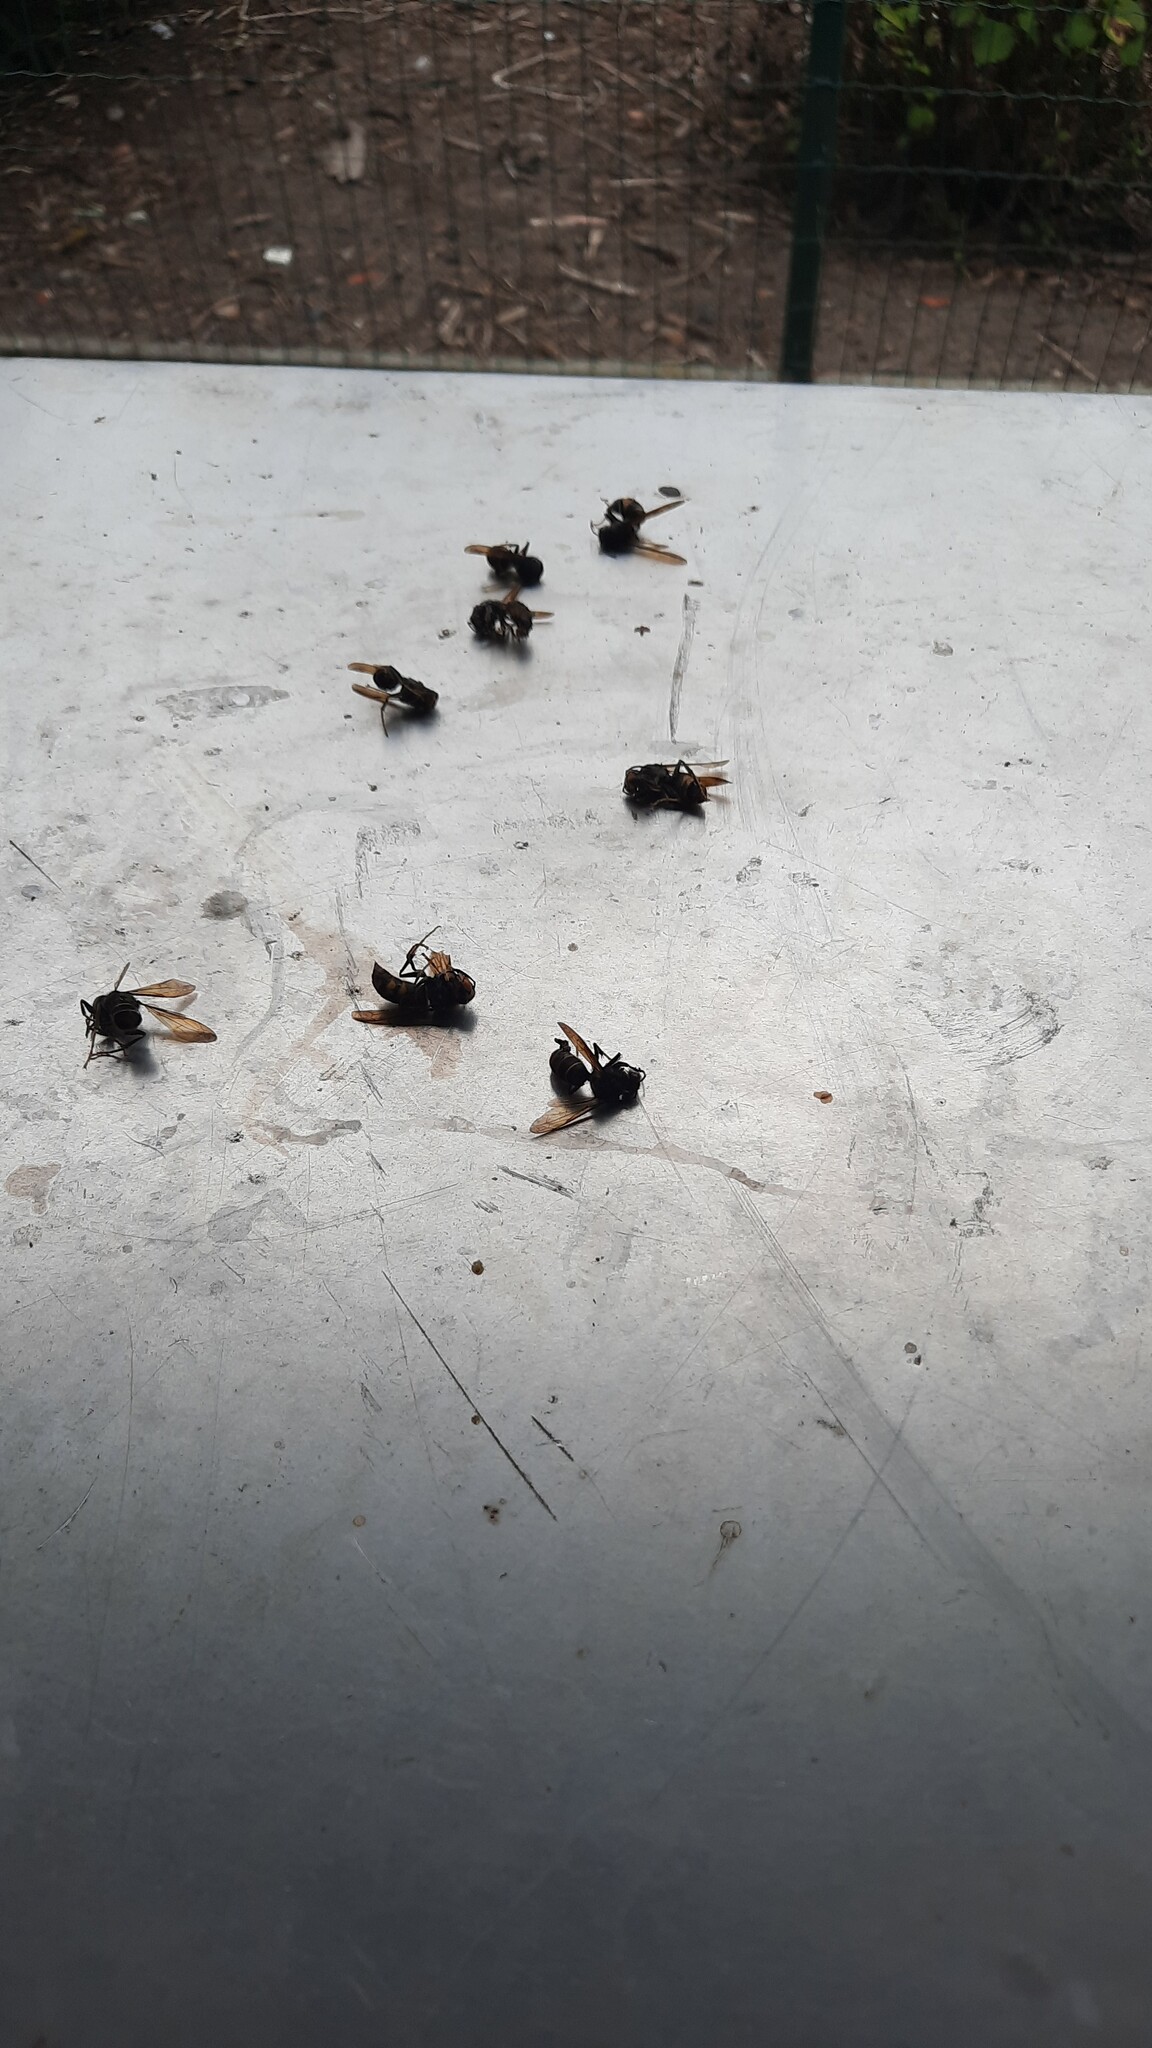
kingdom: Animalia
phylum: Arthropoda
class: Insecta
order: Hymenoptera
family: Vespidae
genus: Vespa
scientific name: Vespa velutina
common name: Asian hornet
